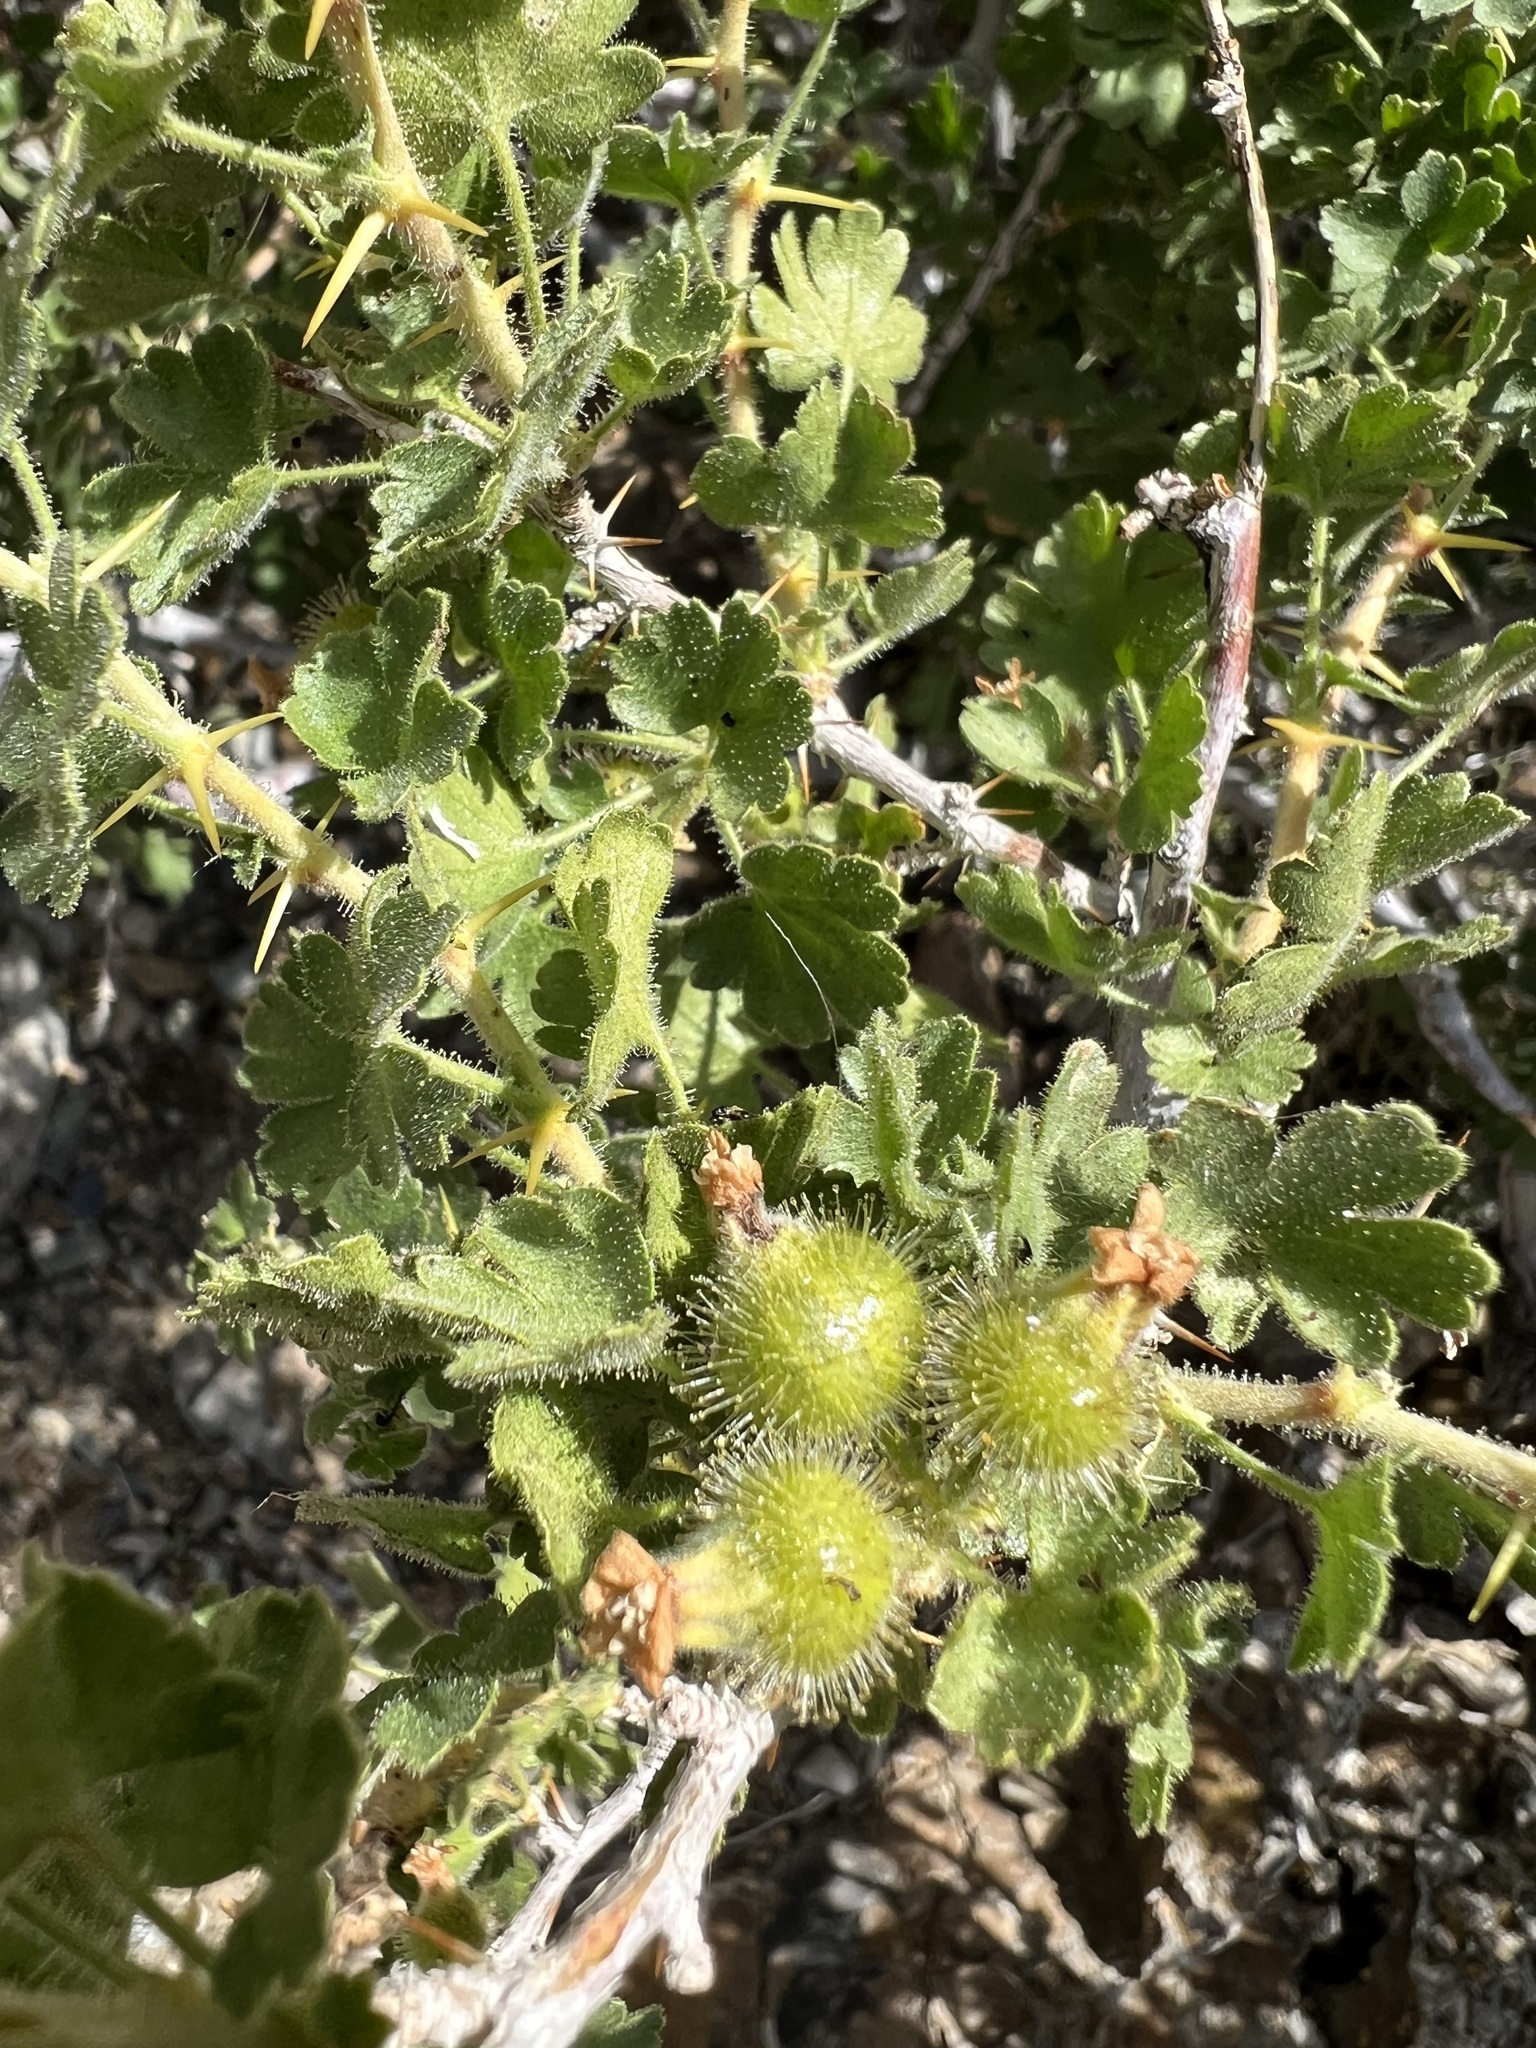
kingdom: Plantae
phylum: Tracheophyta
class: Magnoliopsida
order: Saxifragales
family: Grossulariaceae
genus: Ribes
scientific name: Ribes velutinum
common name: Desert gooseberry
